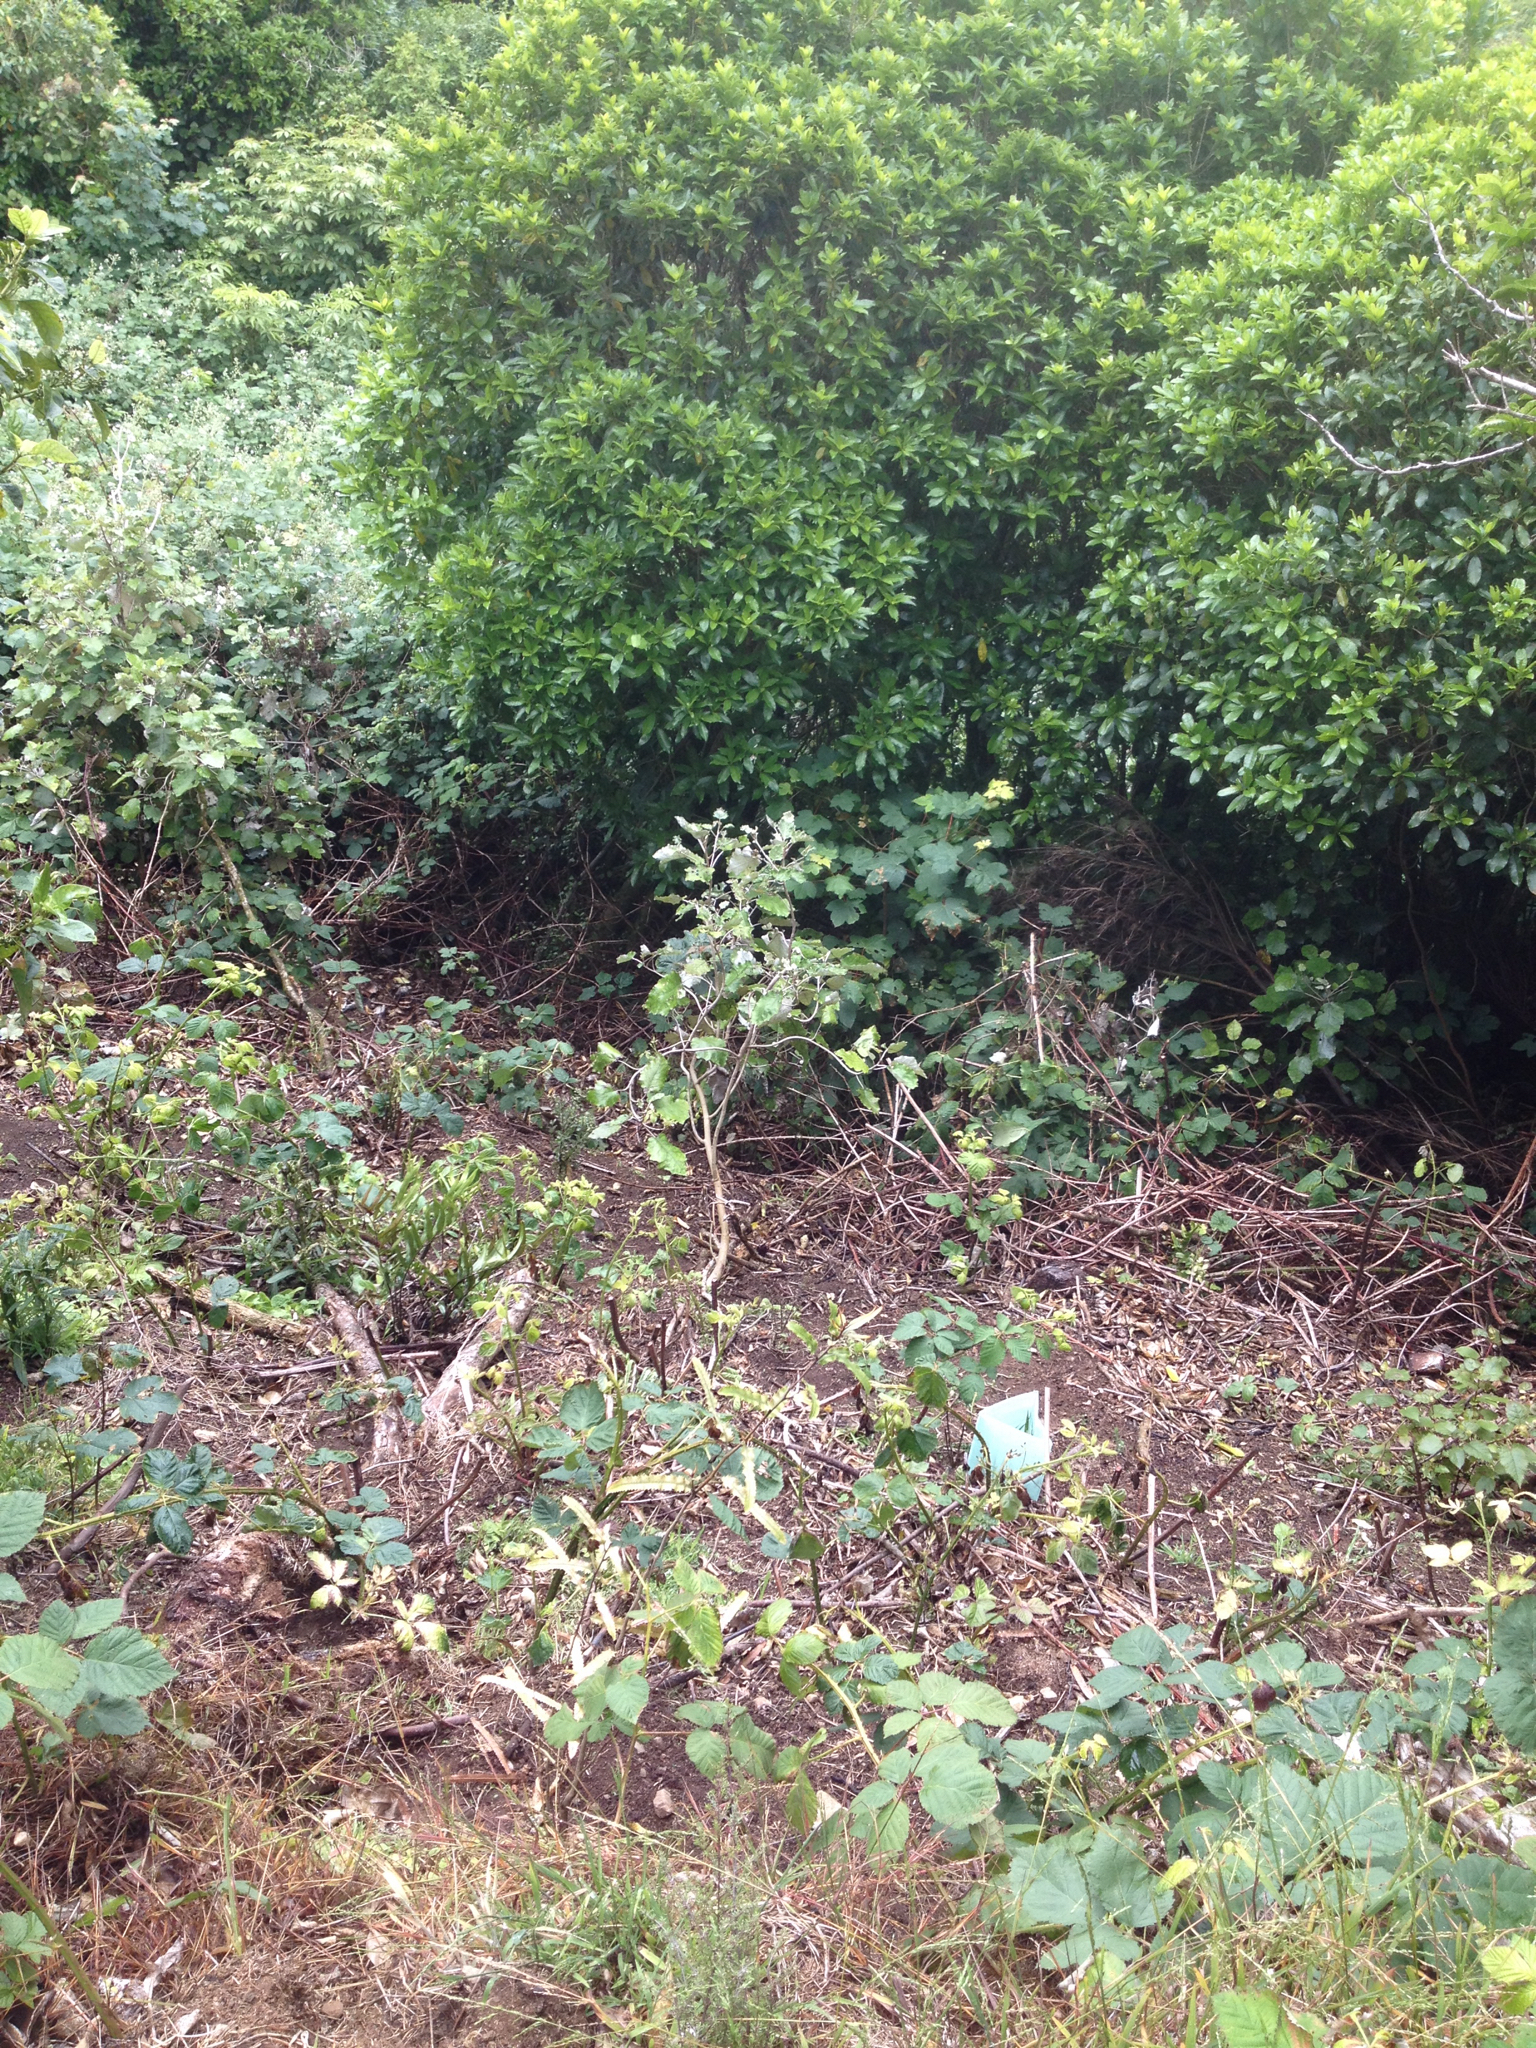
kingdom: Plantae
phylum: Tracheophyta
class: Magnoliopsida
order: Sapindales
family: Sapindaceae
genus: Acer
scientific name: Acer pseudoplatanus
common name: Sycamore
